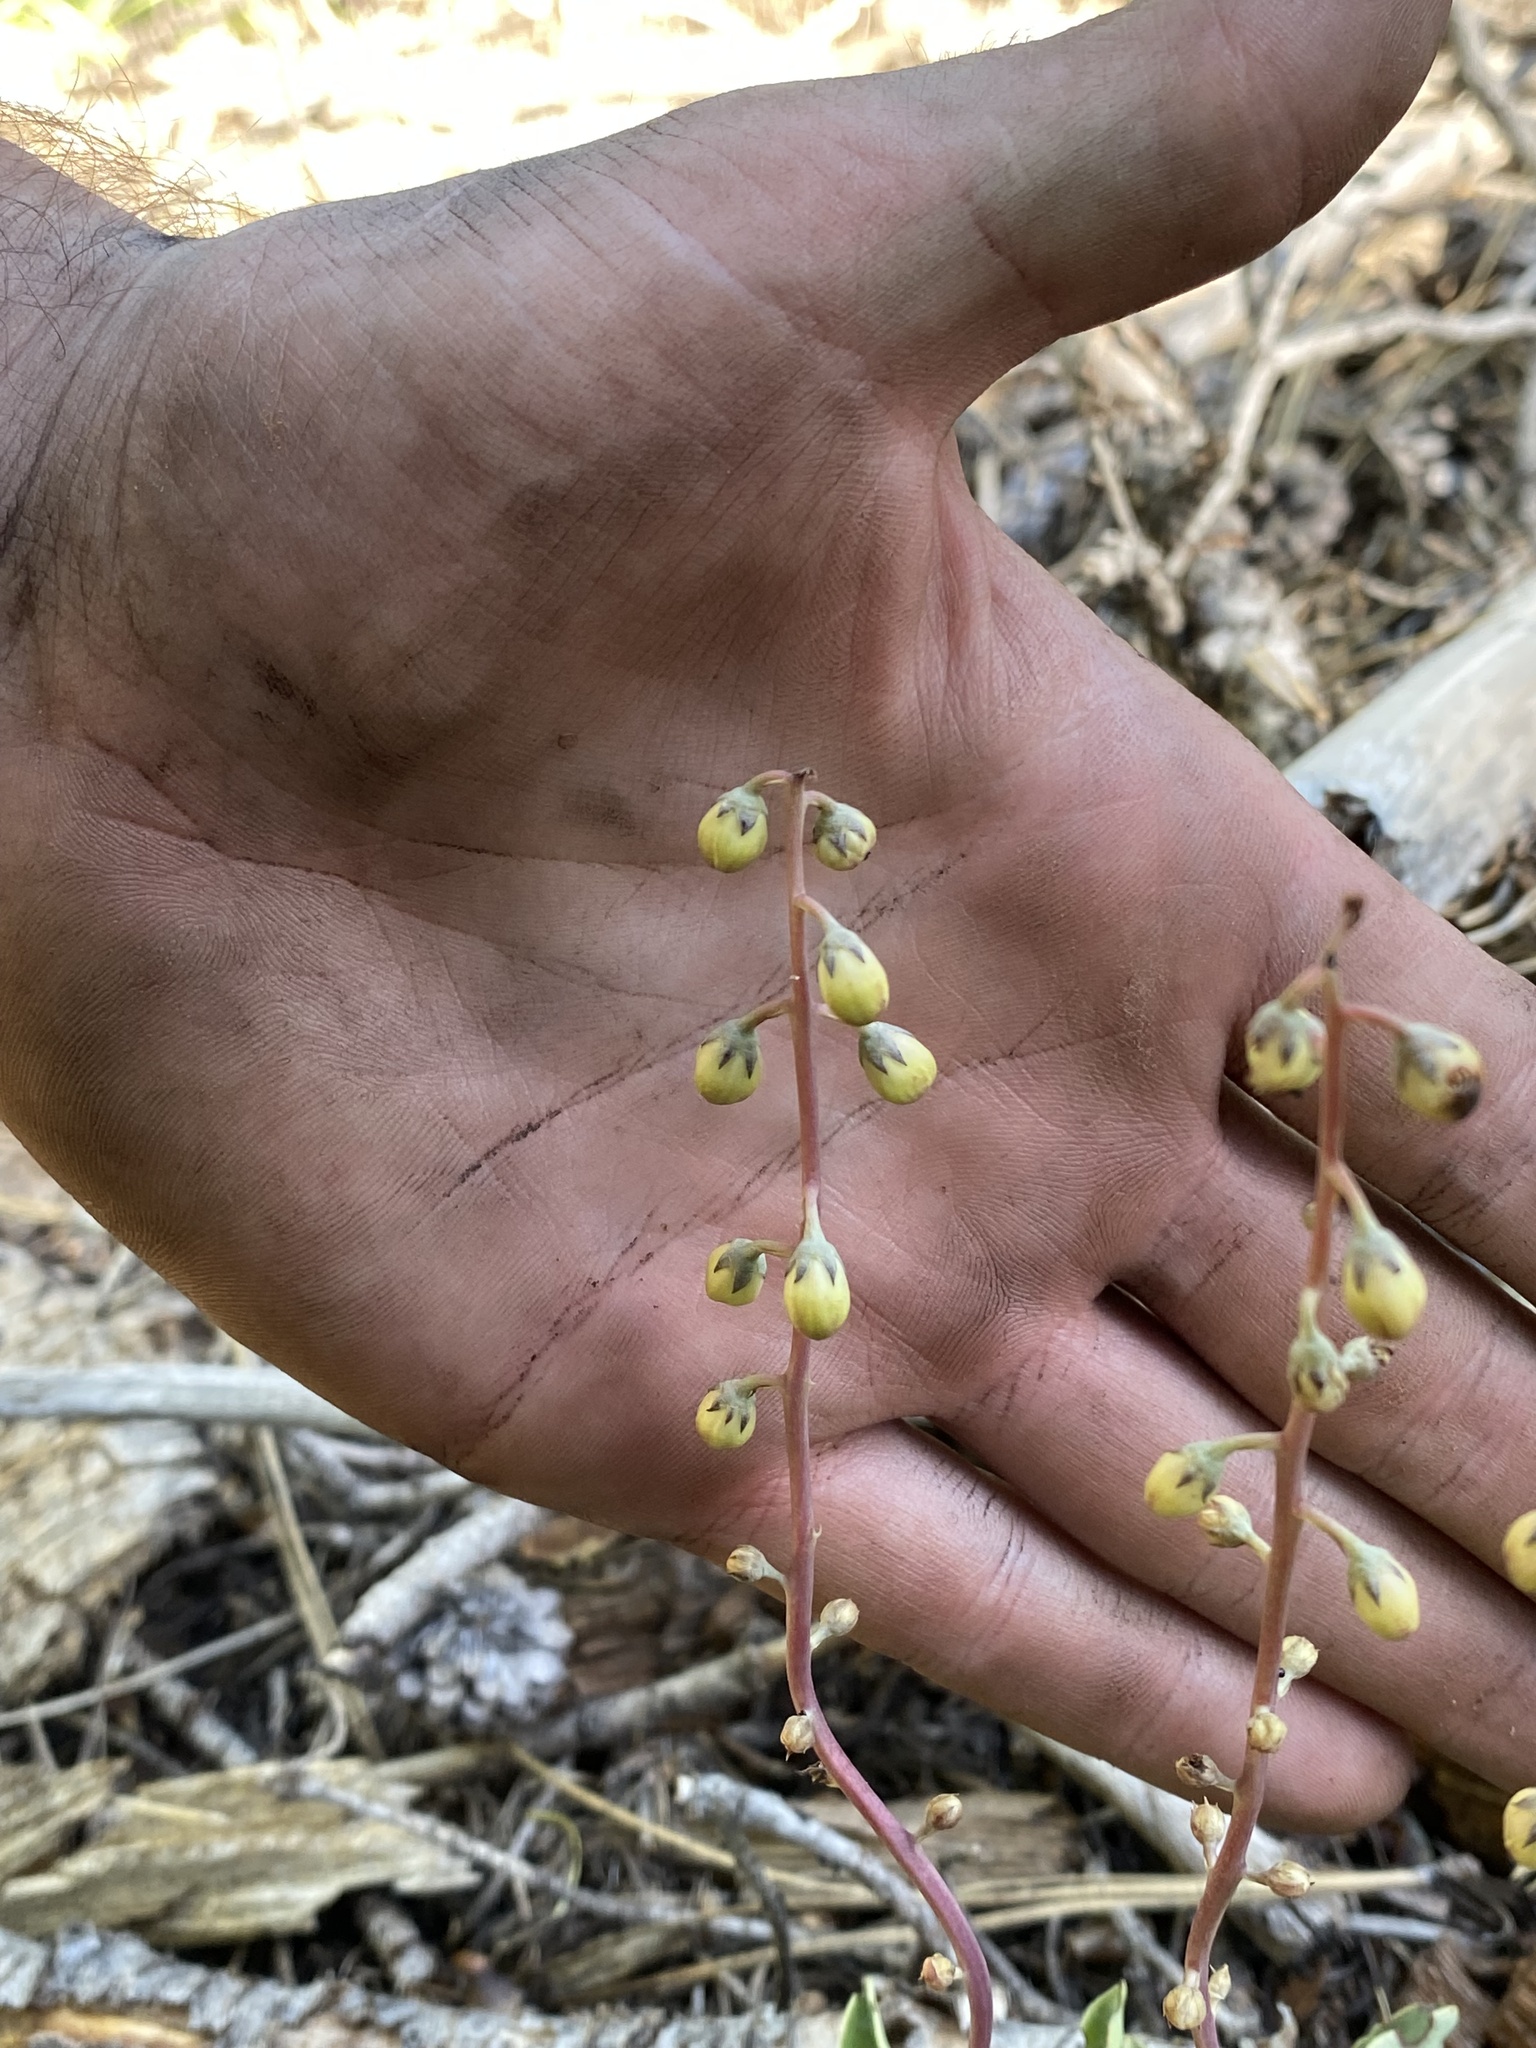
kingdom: Plantae
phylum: Tracheophyta
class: Magnoliopsida
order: Ericales
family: Ericaceae
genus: Pyrola
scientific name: Pyrola dentata
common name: Tooth-leaved wintergreen
